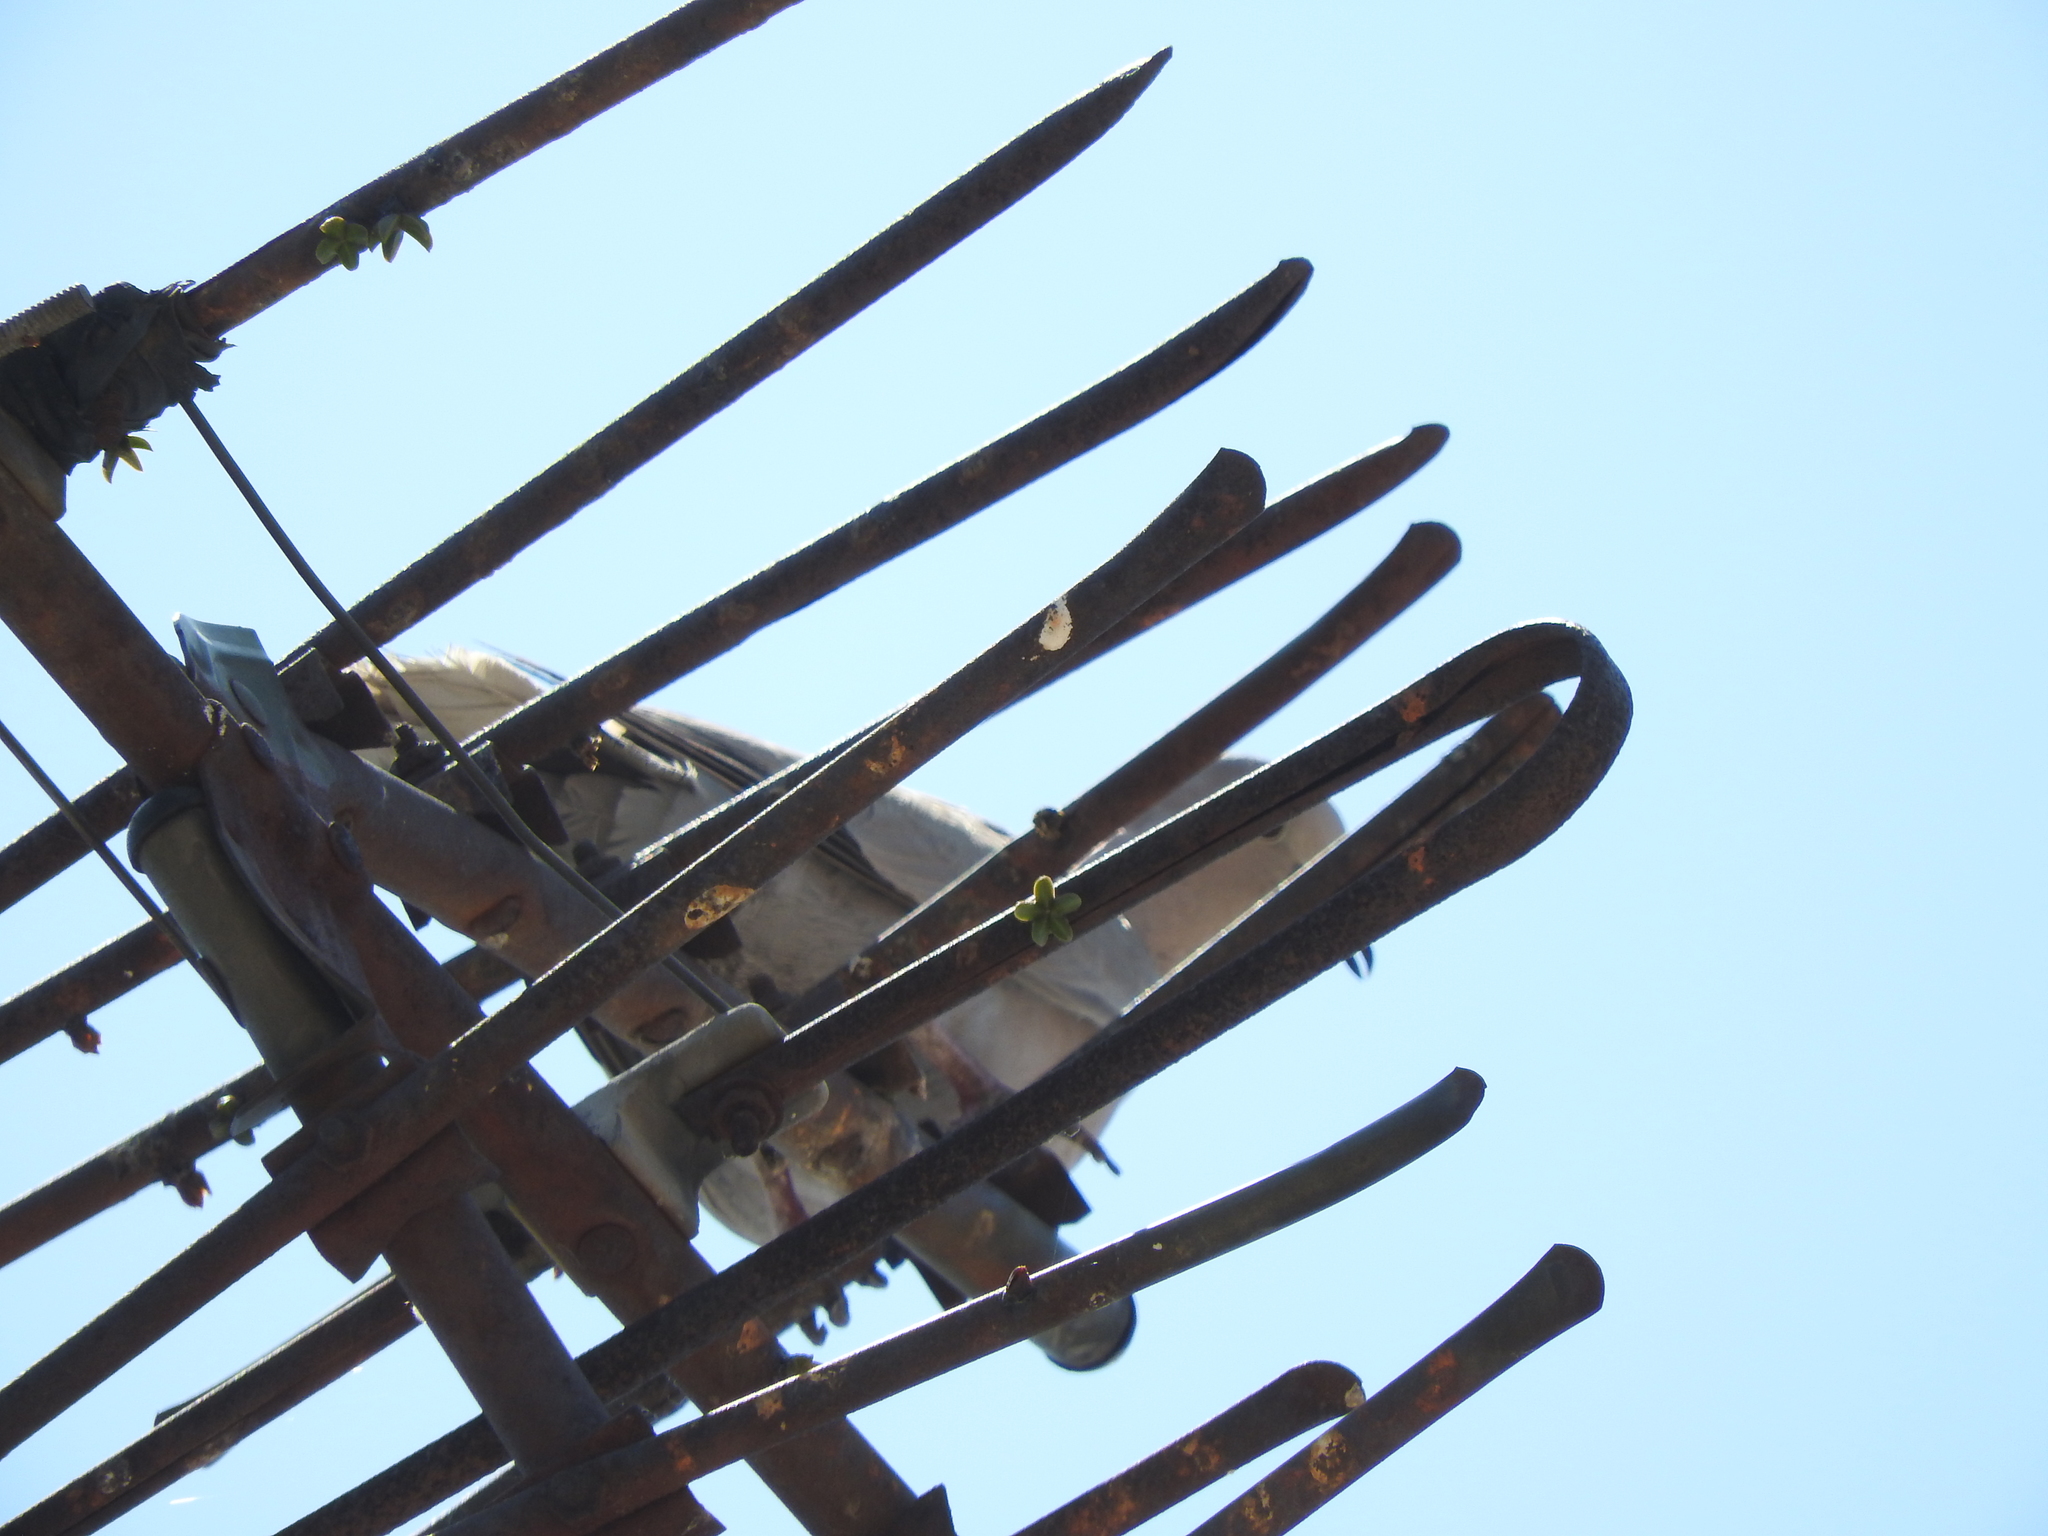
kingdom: Animalia
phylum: Chordata
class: Aves
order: Columbiformes
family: Columbidae
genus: Streptopelia
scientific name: Streptopelia decaocto
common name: Eurasian collared dove
